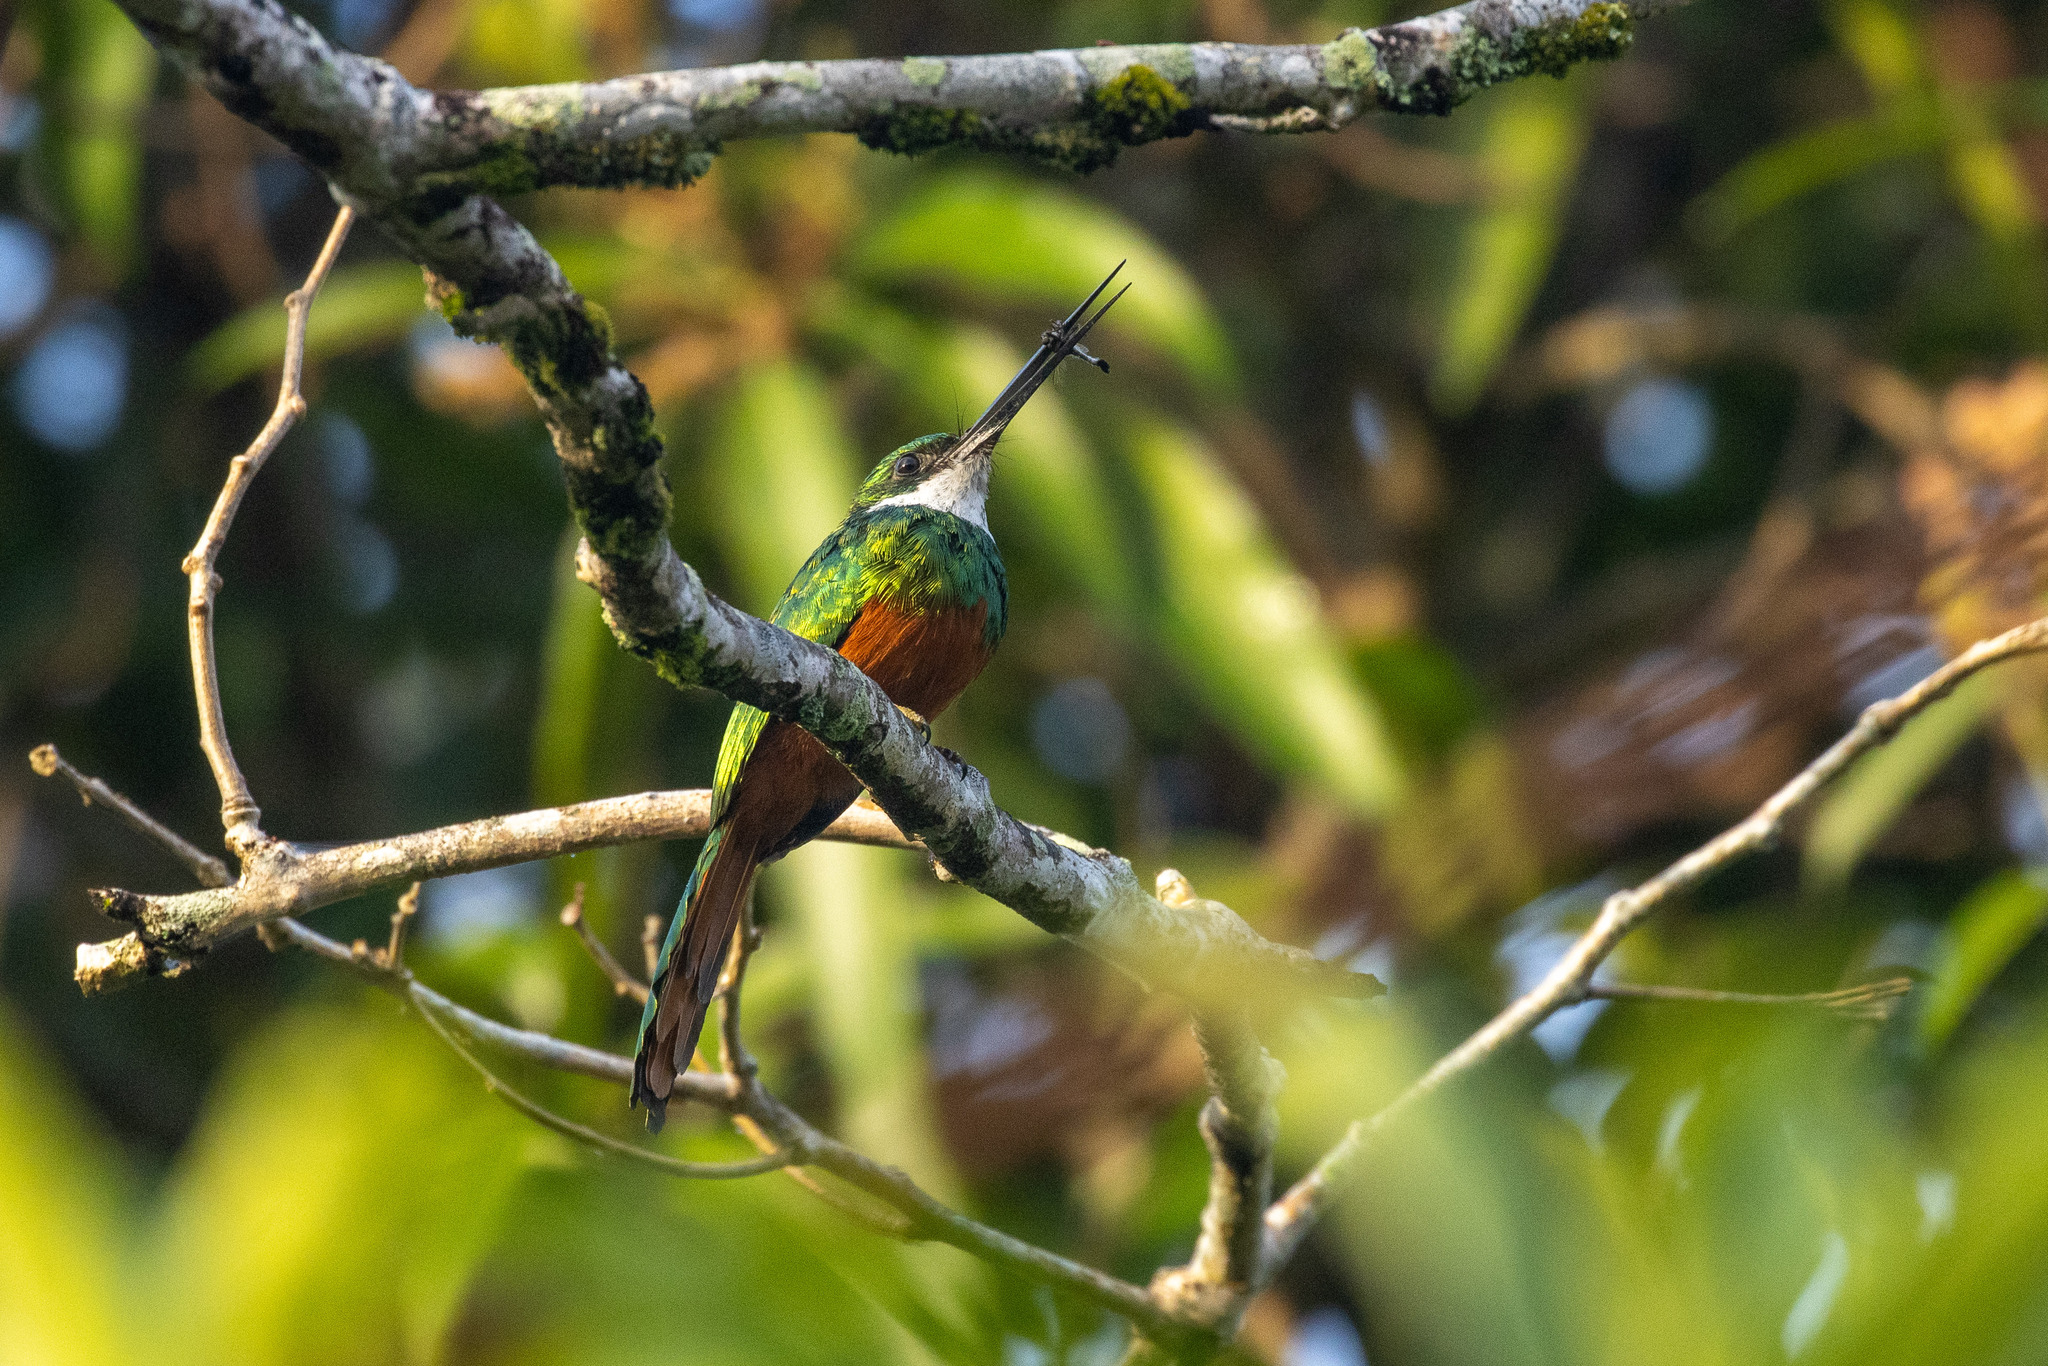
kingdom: Animalia
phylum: Chordata
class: Aves
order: Piciformes
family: Galbulidae
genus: Galbula
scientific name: Galbula ruficauda
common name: Rufous-tailed jacamar
